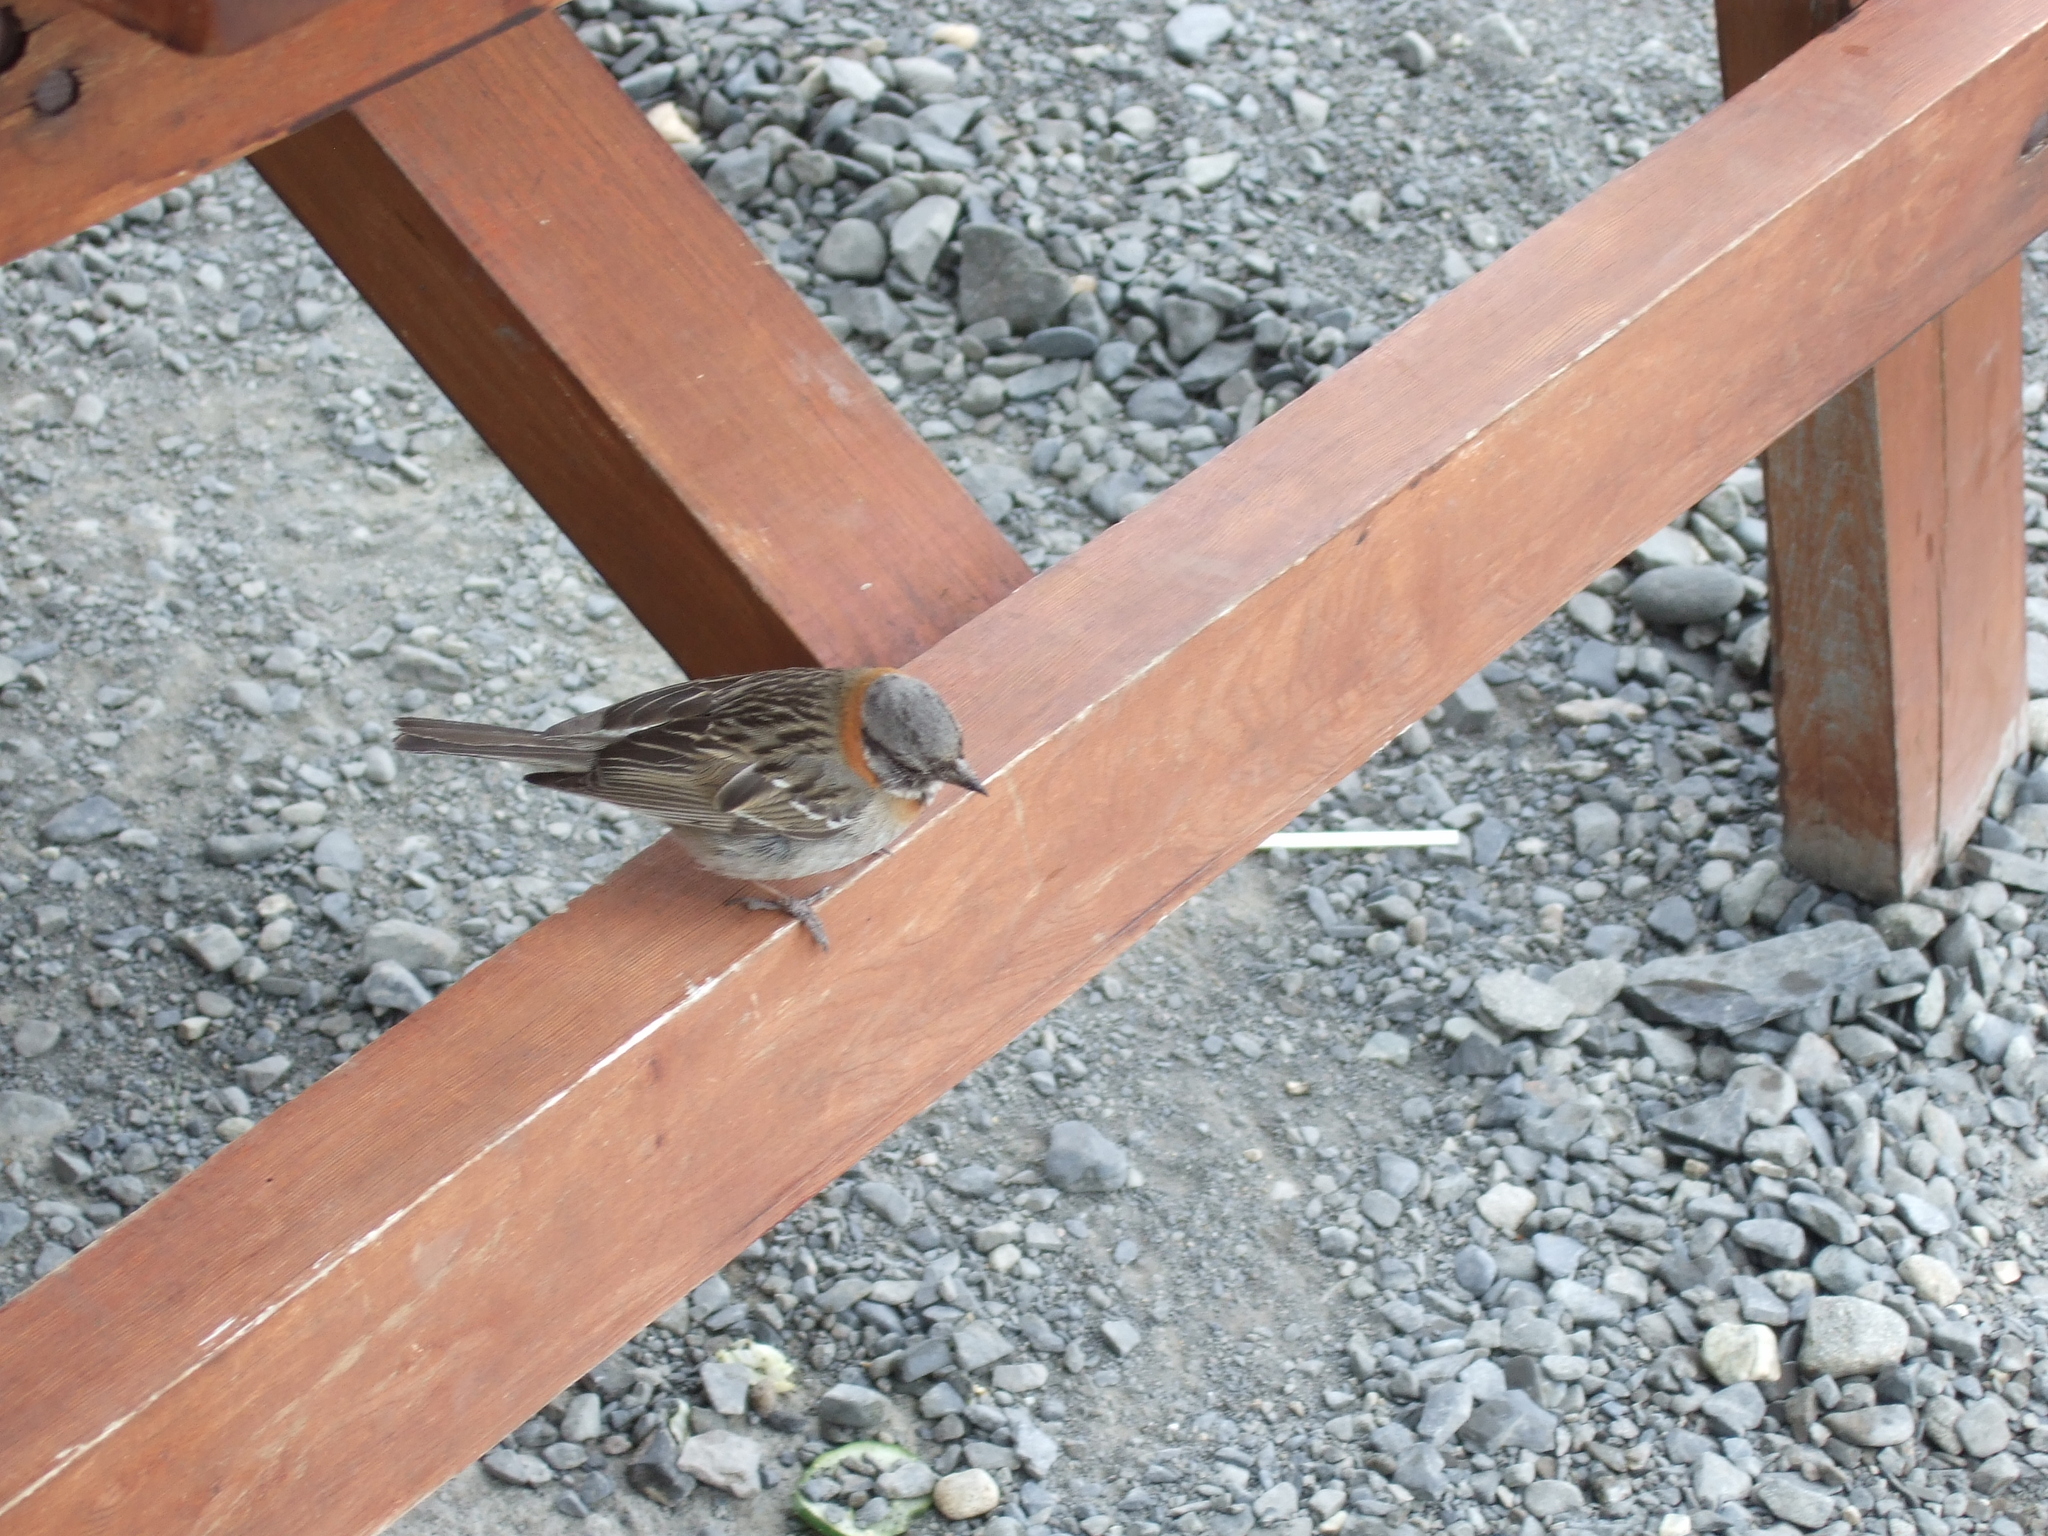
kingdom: Animalia
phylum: Chordata
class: Aves
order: Passeriformes
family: Passerellidae
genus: Zonotrichia
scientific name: Zonotrichia capensis
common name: Rufous-collared sparrow
